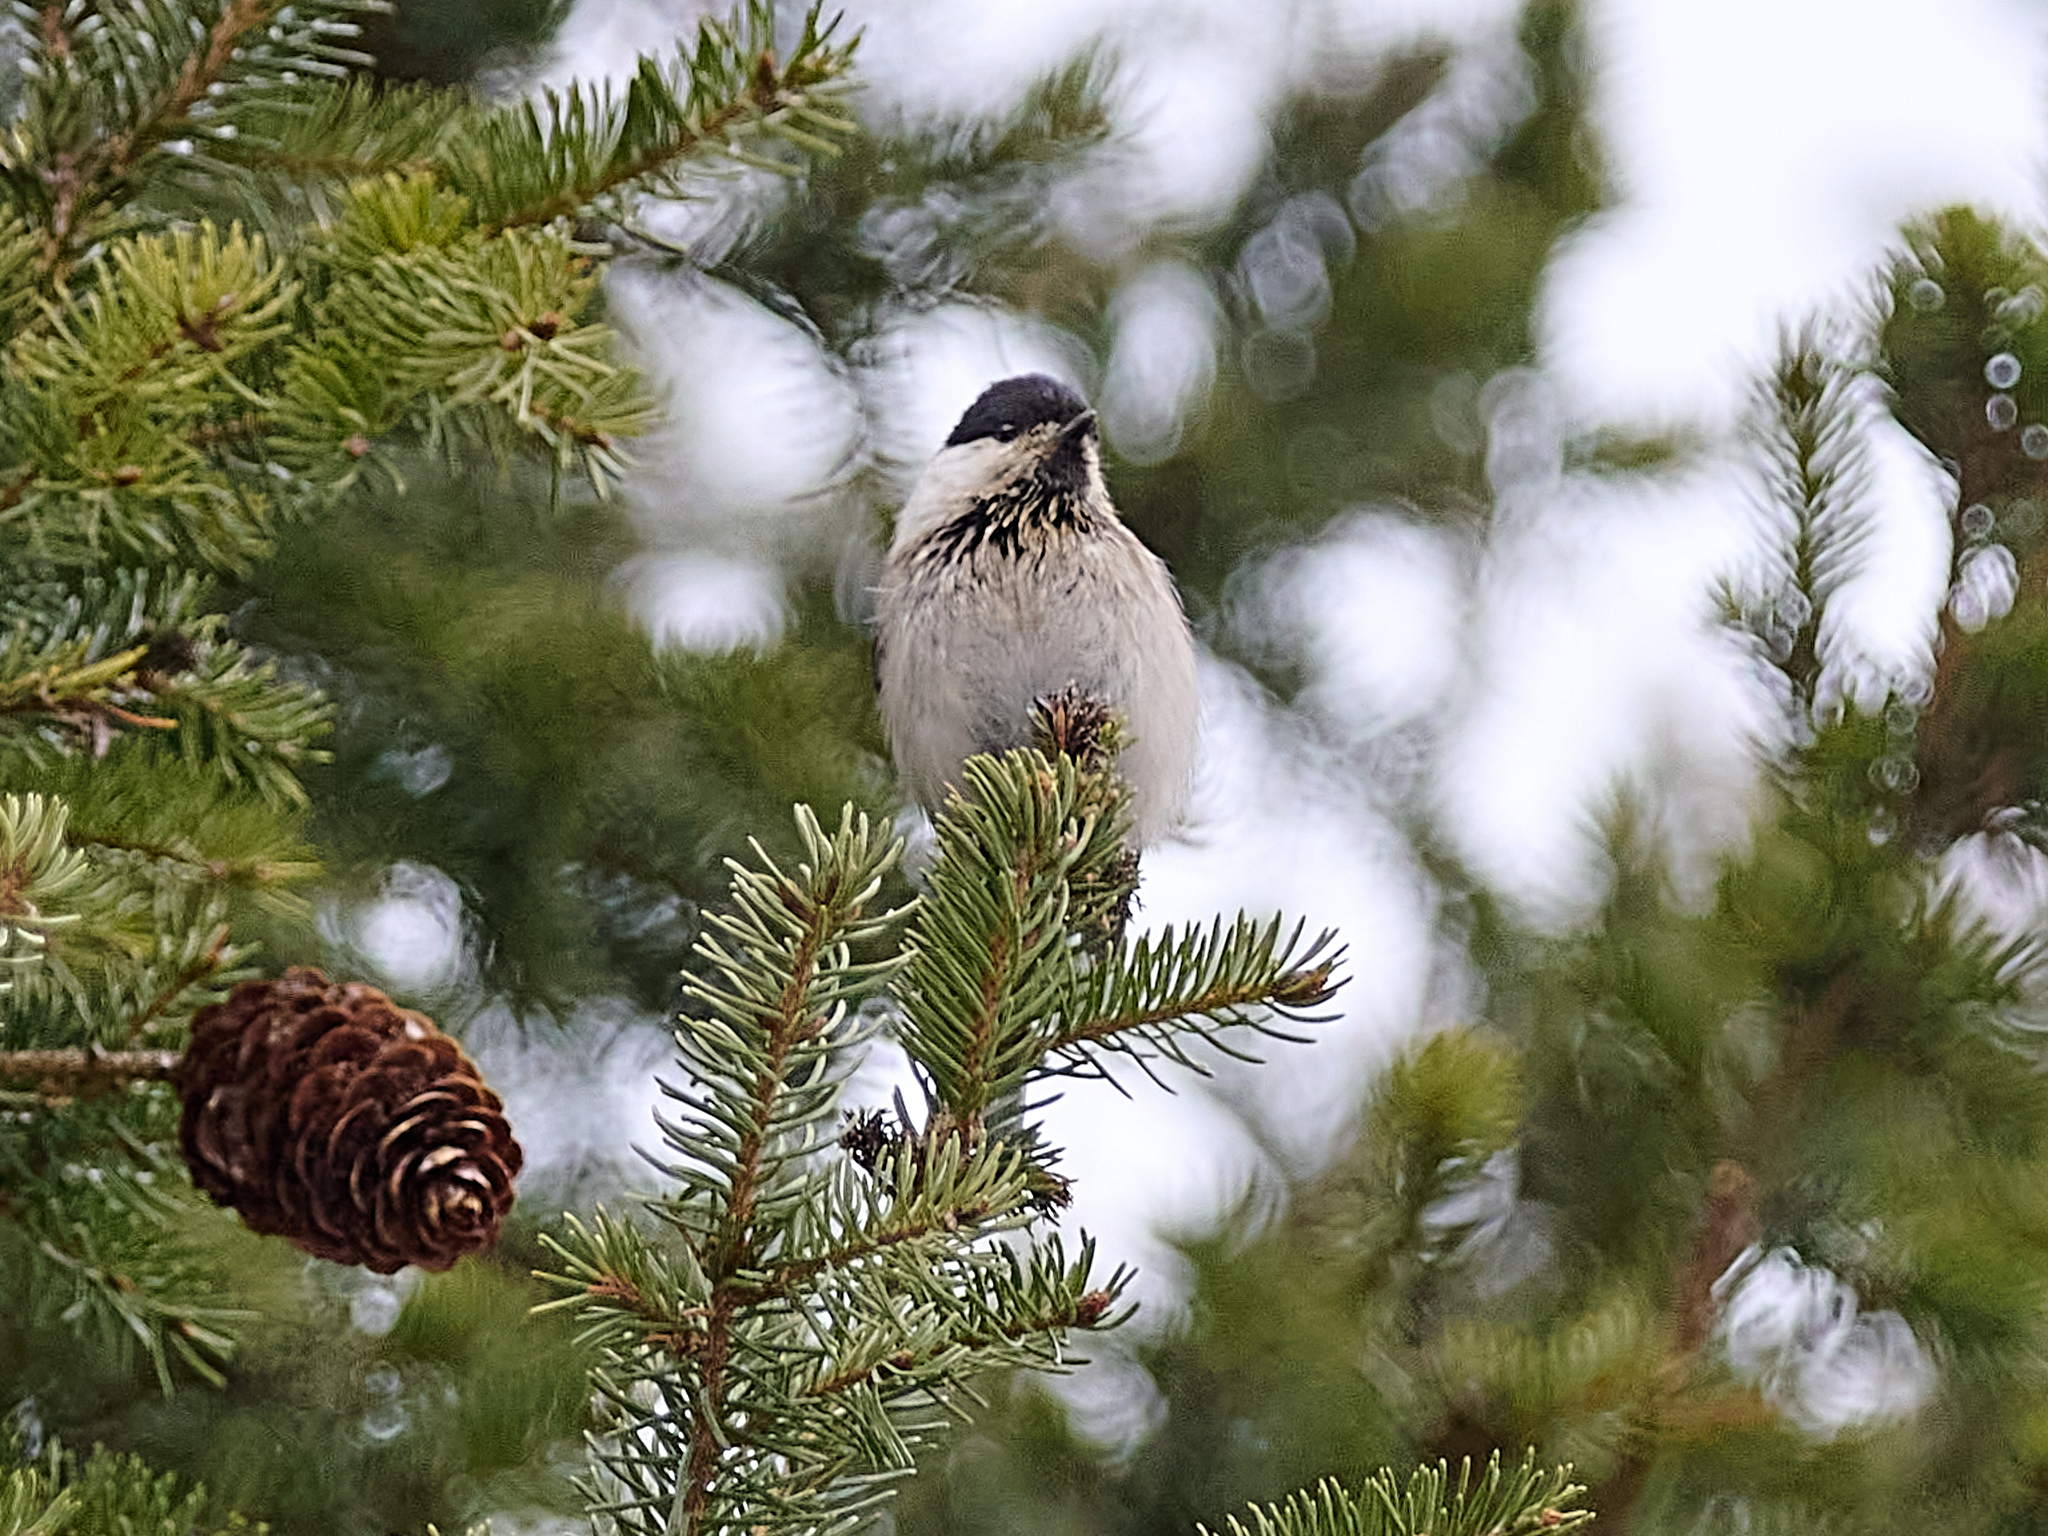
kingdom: Animalia
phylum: Chordata
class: Aves
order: Passeriformes
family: Paridae
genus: Poecile
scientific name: Poecile montanus
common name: Willow tit
